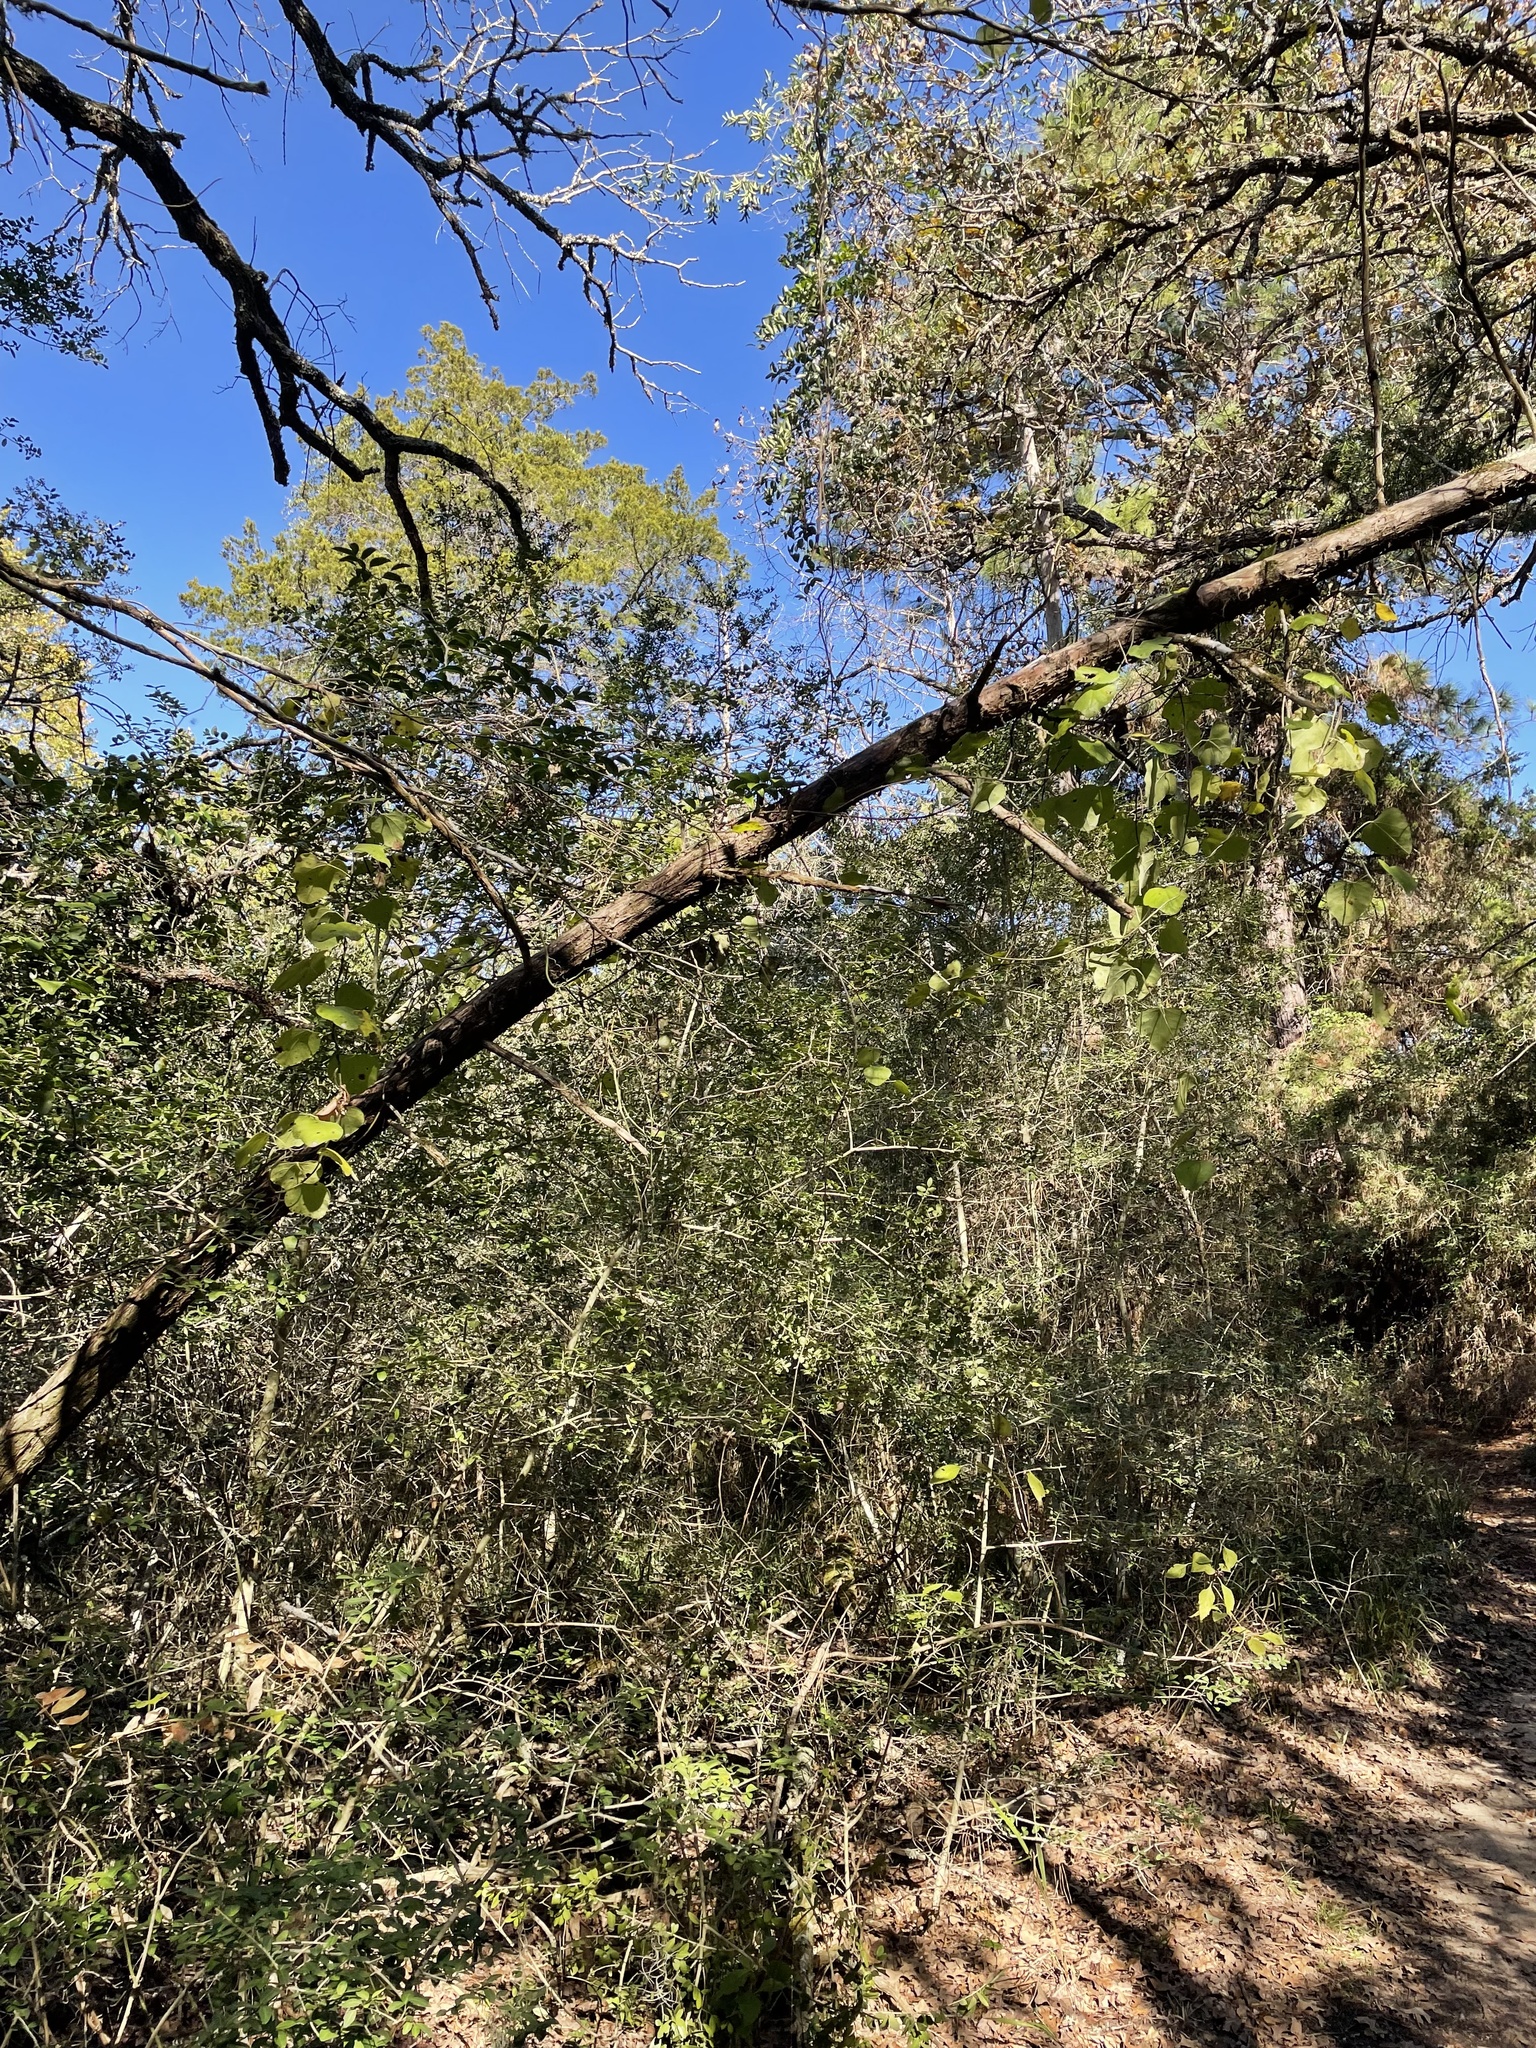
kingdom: Plantae
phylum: Tracheophyta
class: Magnoliopsida
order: Ranunculales
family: Menispermaceae
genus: Cocculus
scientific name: Cocculus carolinus
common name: Carolina moonseed
